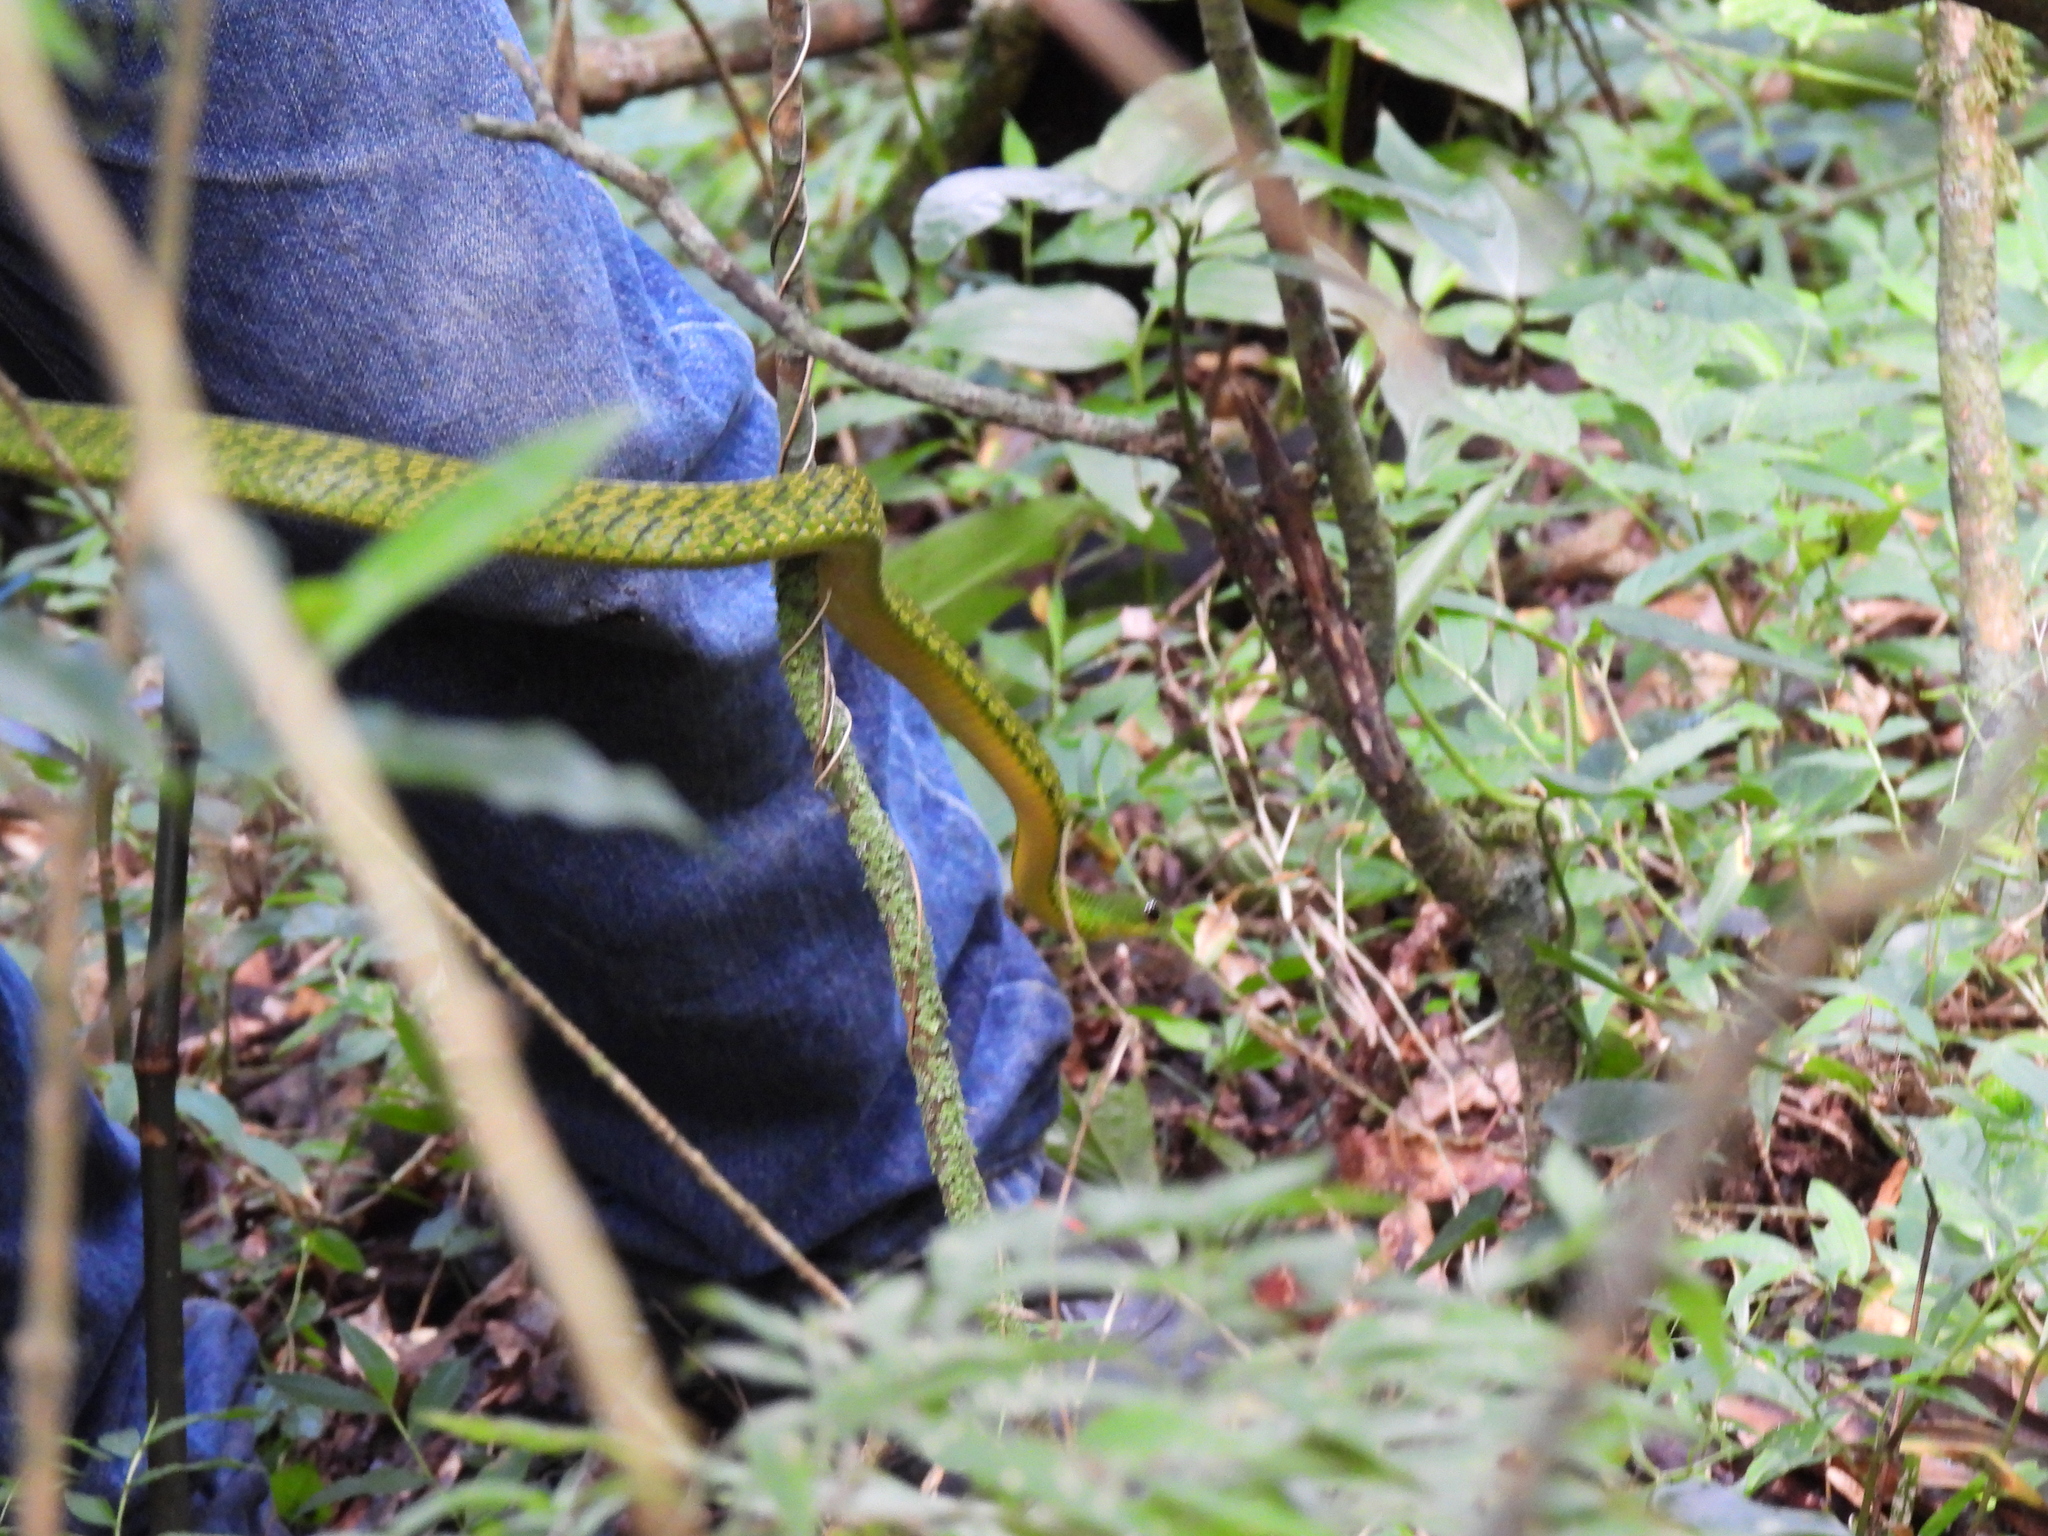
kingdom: Animalia
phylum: Chordata
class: Squamata
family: Colubridae
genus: Drymobius
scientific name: Drymobius chloroticus
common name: Green highland racer
